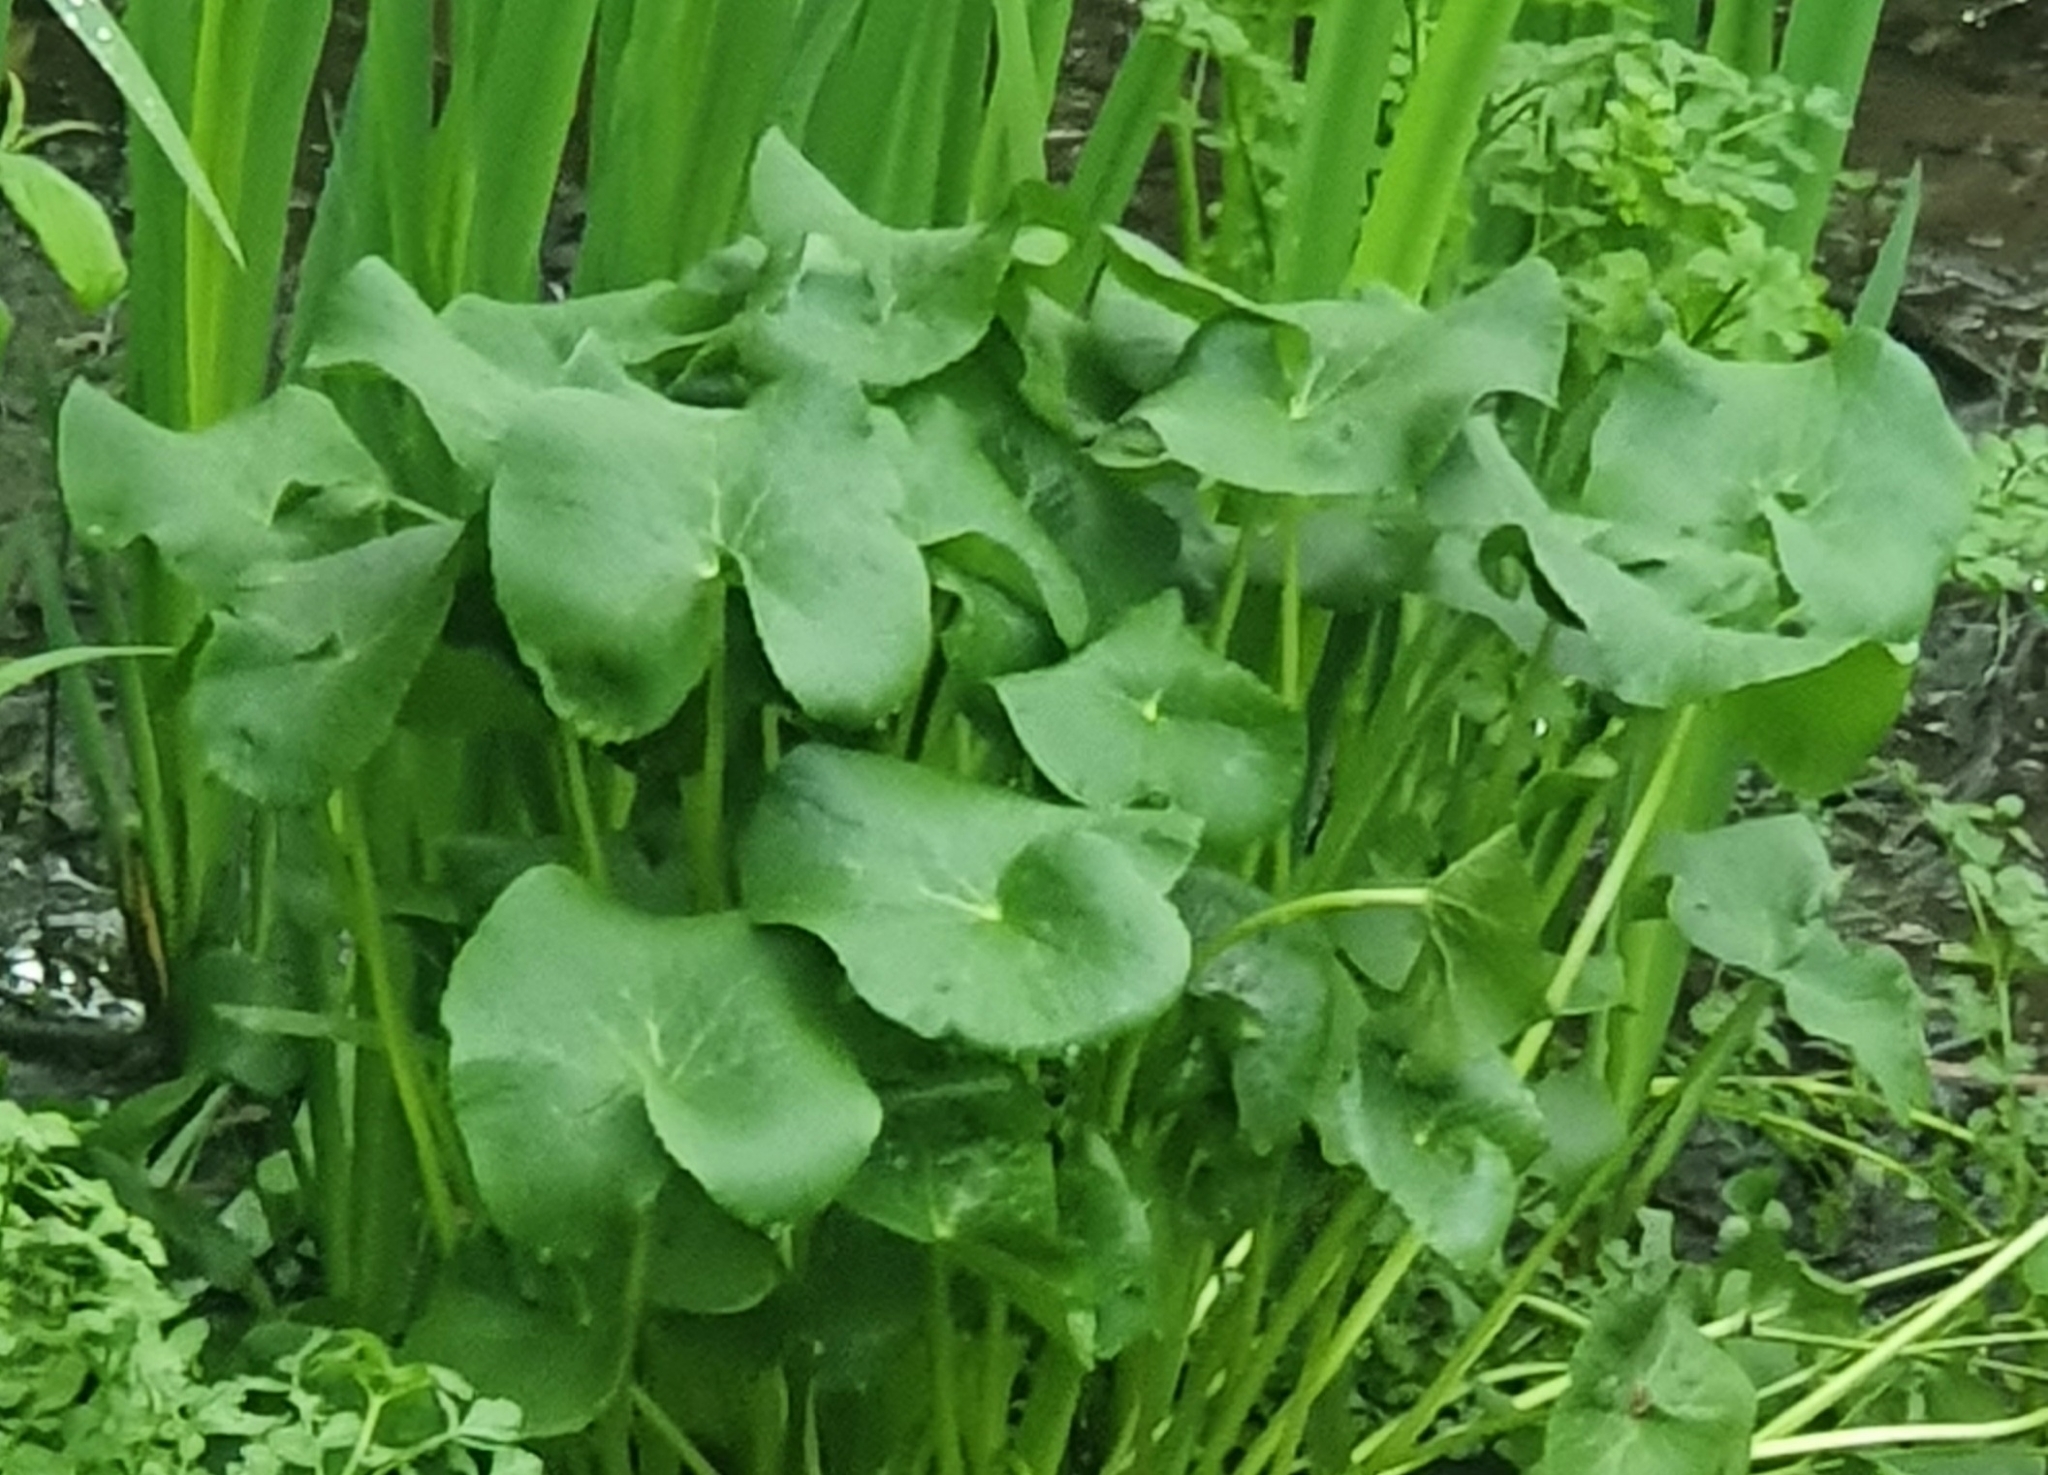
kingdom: Plantae
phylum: Tracheophyta
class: Magnoliopsida
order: Ranunculales
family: Ranunculaceae
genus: Caltha
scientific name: Caltha palustris
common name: Marsh marigold
